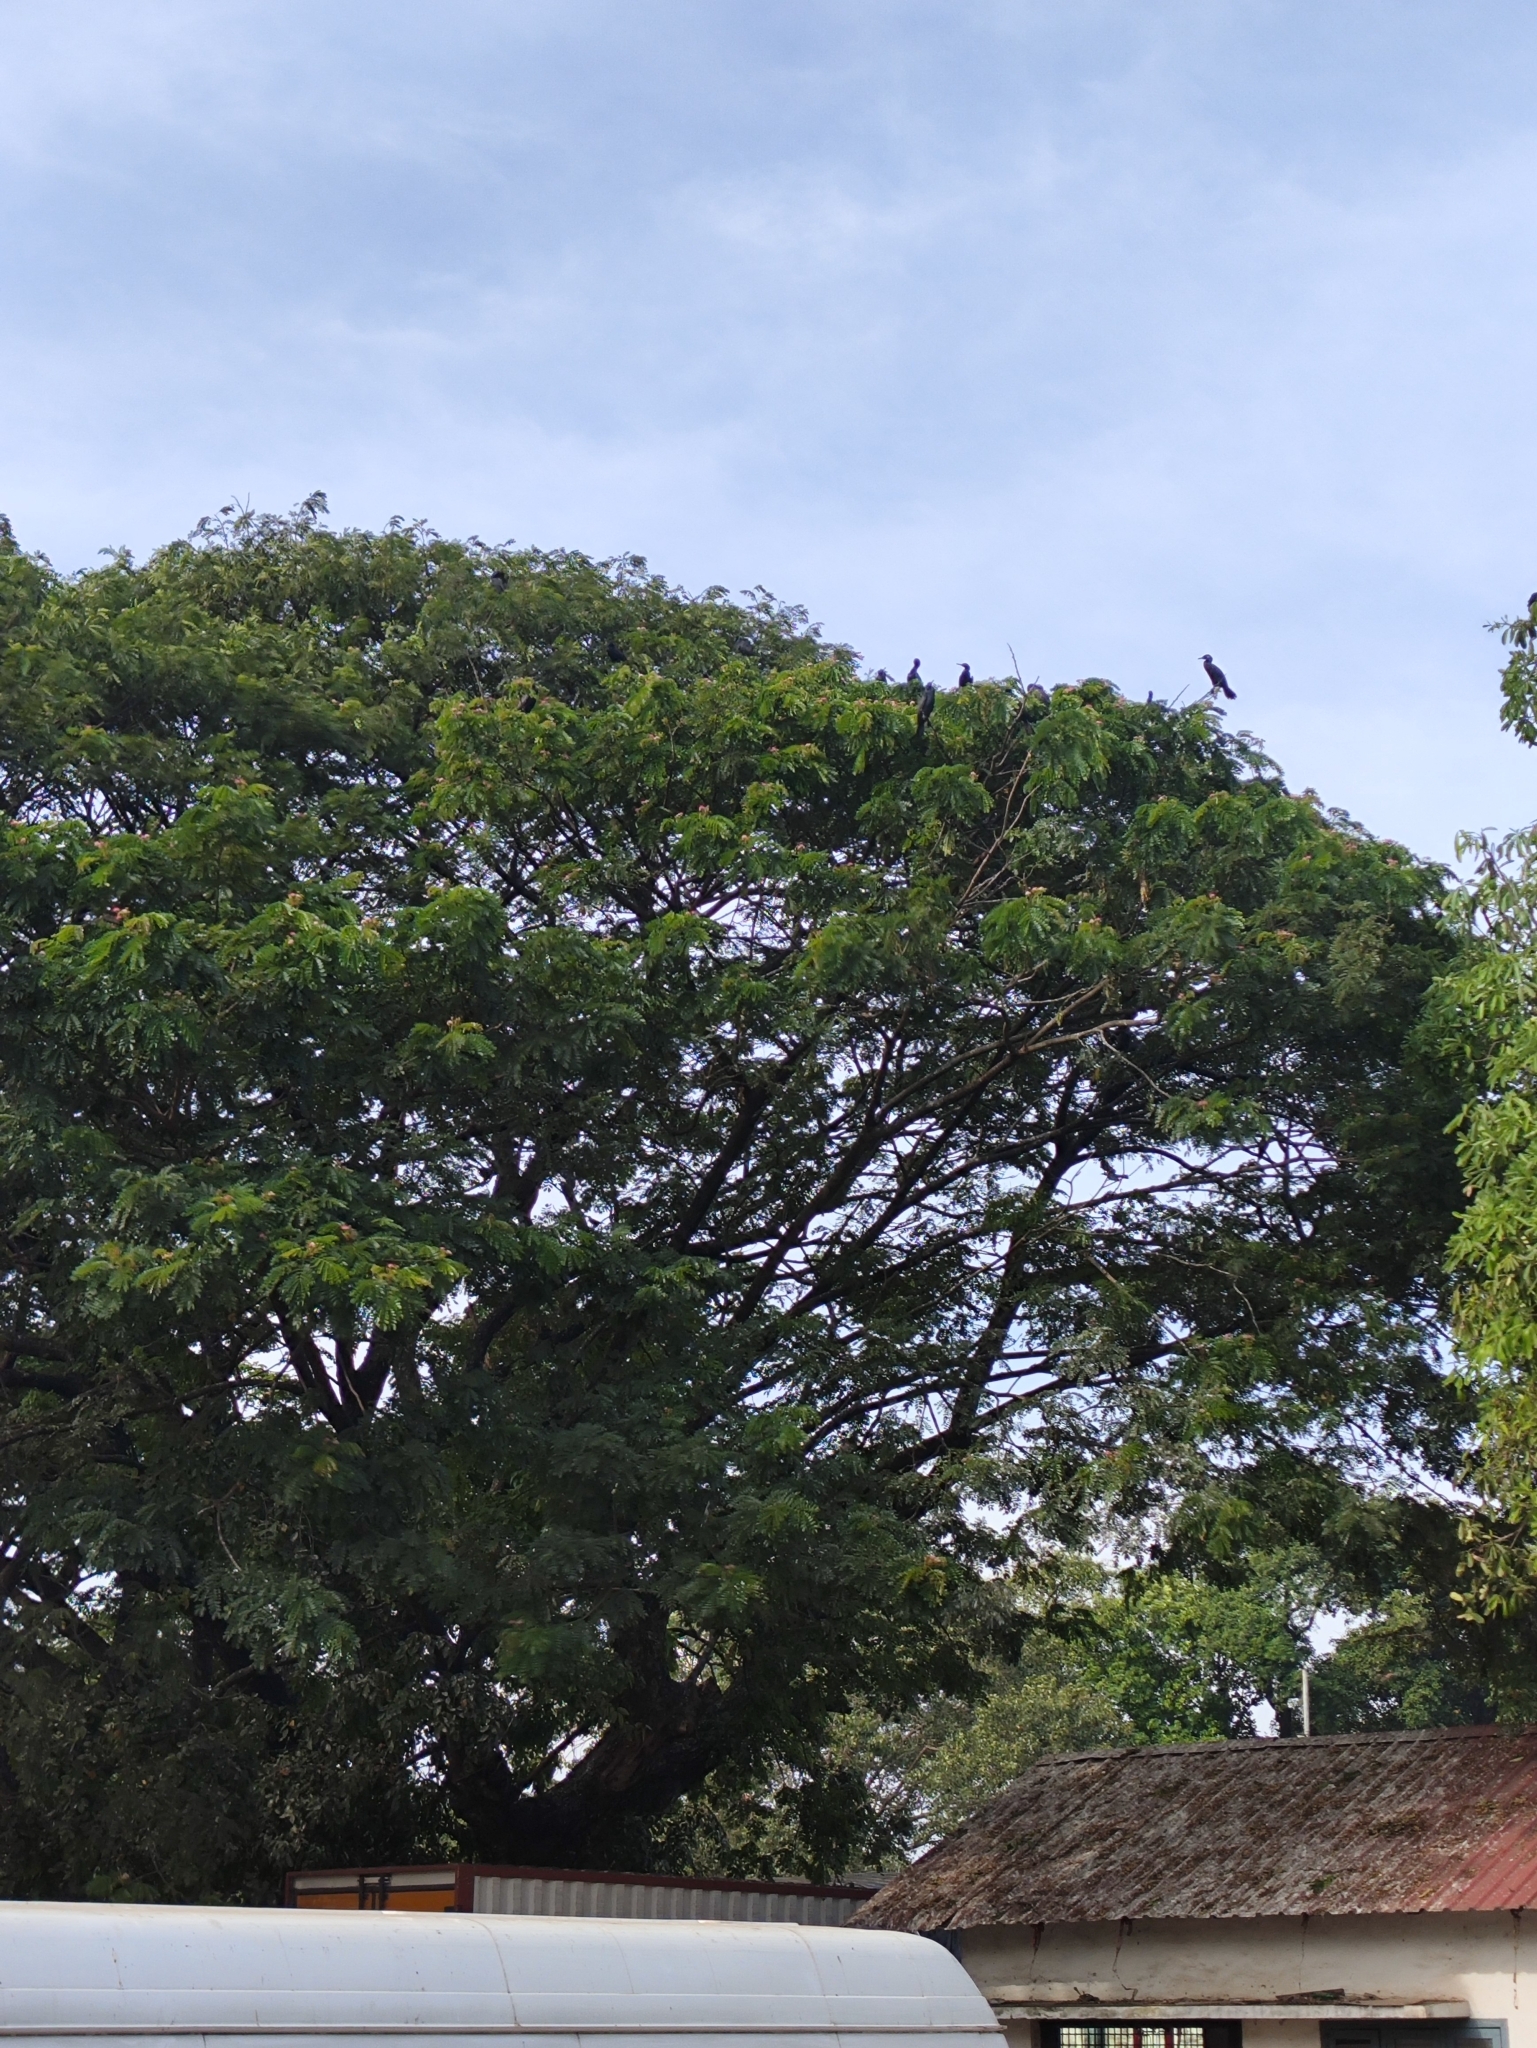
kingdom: Animalia
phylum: Chordata
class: Aves
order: Suliformes
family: Phalacrocoracidae
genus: Phalacrocorax
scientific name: Phalacrocorax fuscicollis
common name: Indian cormorant
